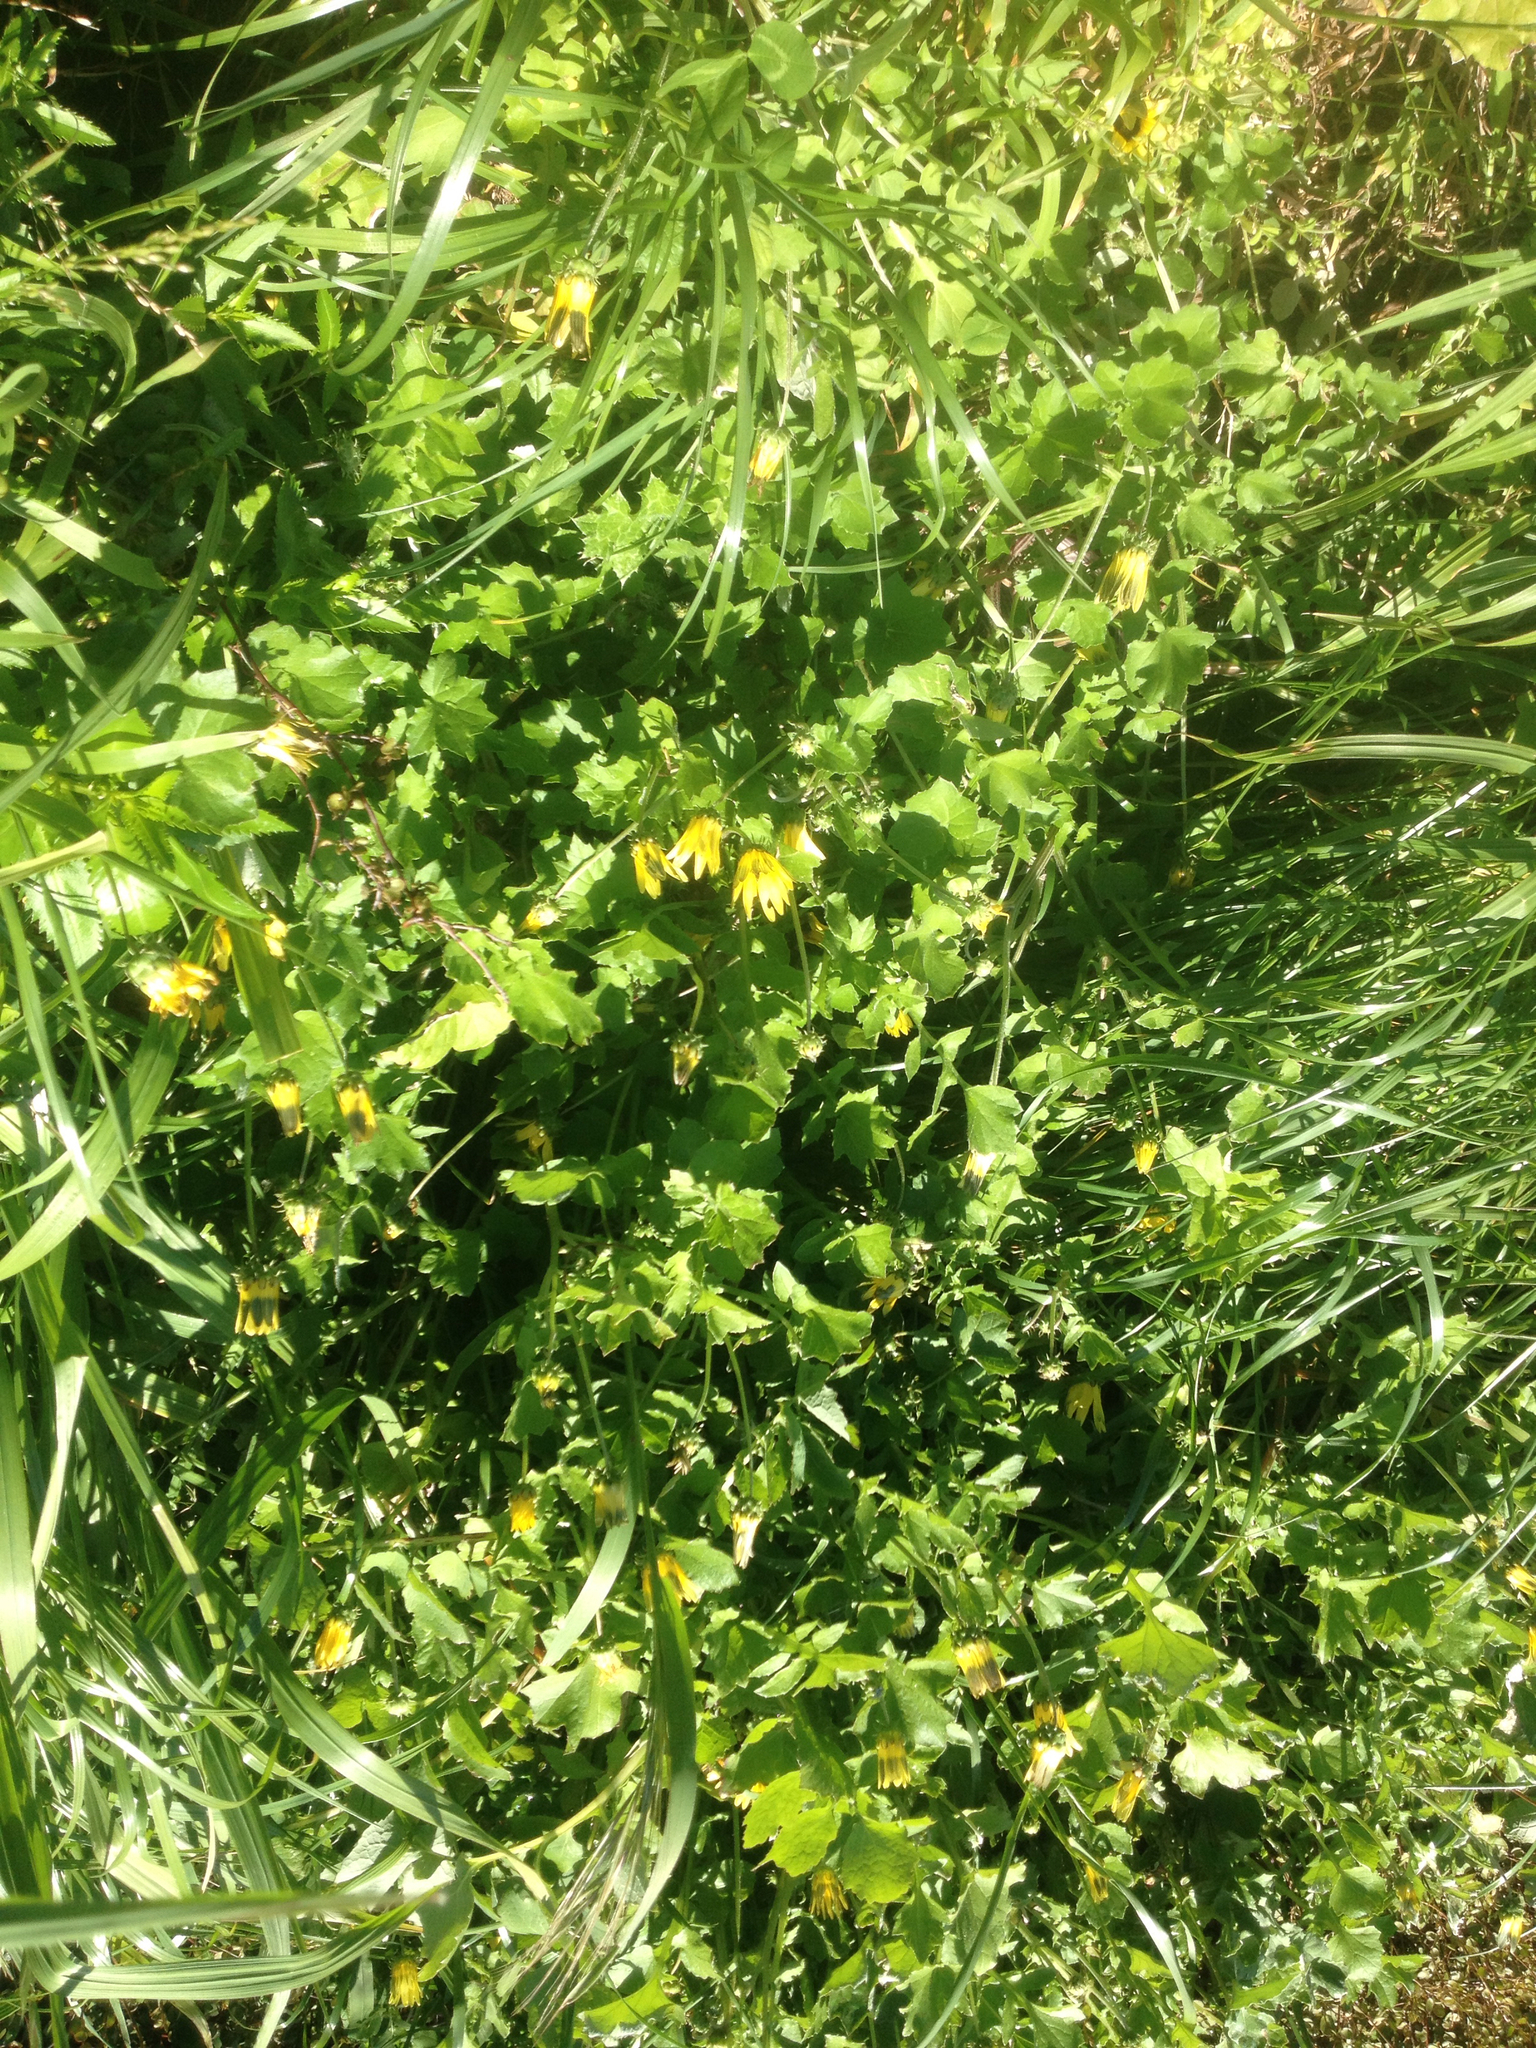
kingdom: Plantae
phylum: Tracheophyta
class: Magnoliopsida
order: Asterales
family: Asteraceae
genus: Arctotheca
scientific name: Arctotheca calendula
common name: Capeweed
